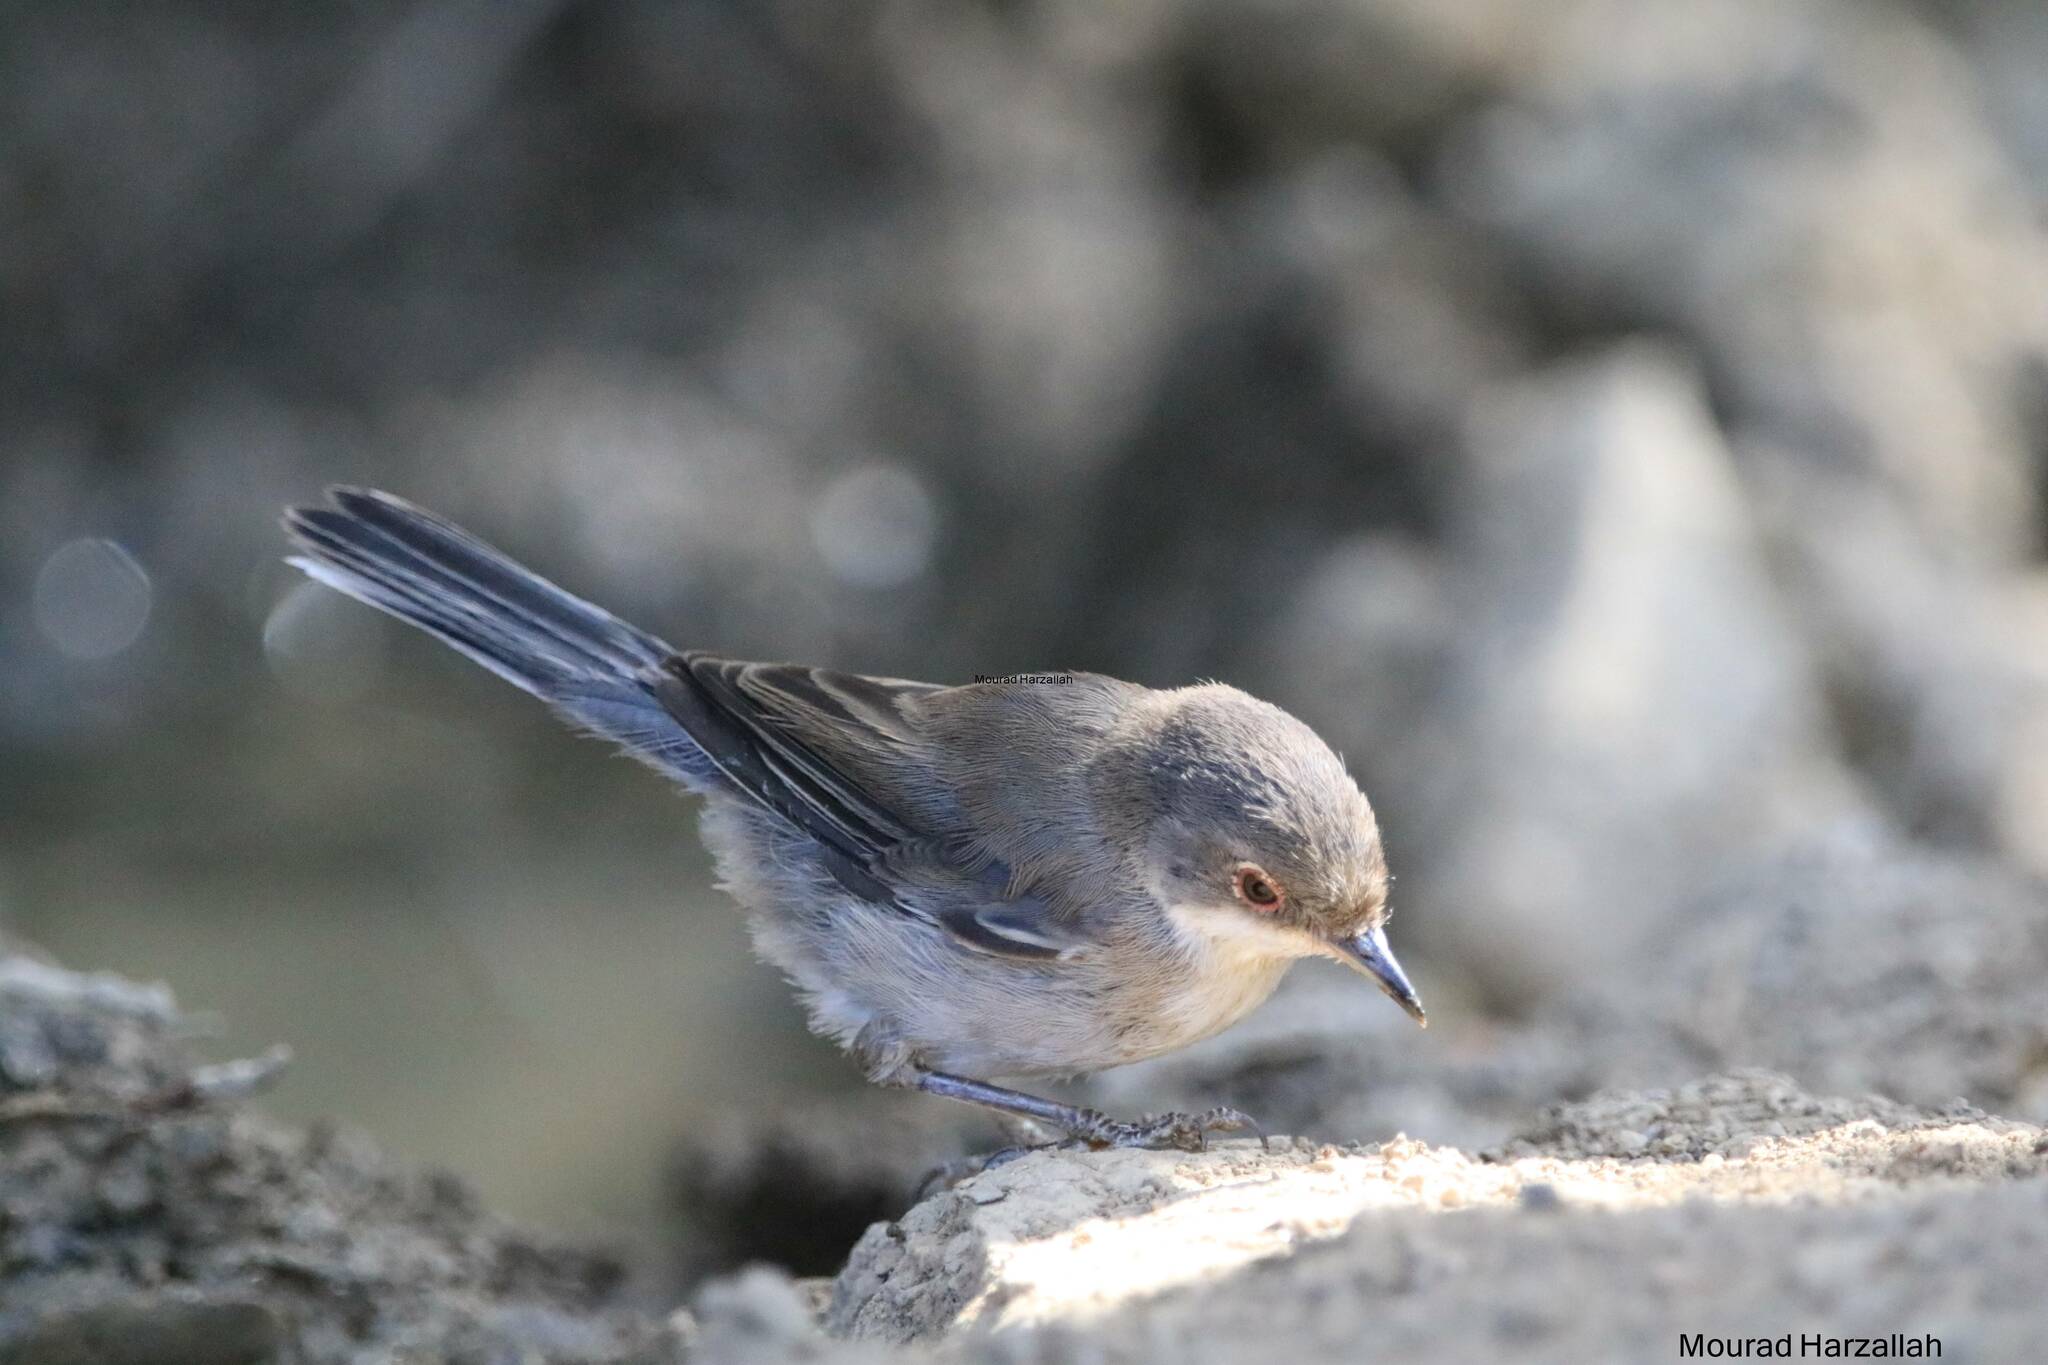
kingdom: Animalia
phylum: Chordata
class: Aves
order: Passeriformes
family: Sylviidae
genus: Curruca
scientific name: Curruca melanocephala
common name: Sardinian warbler
